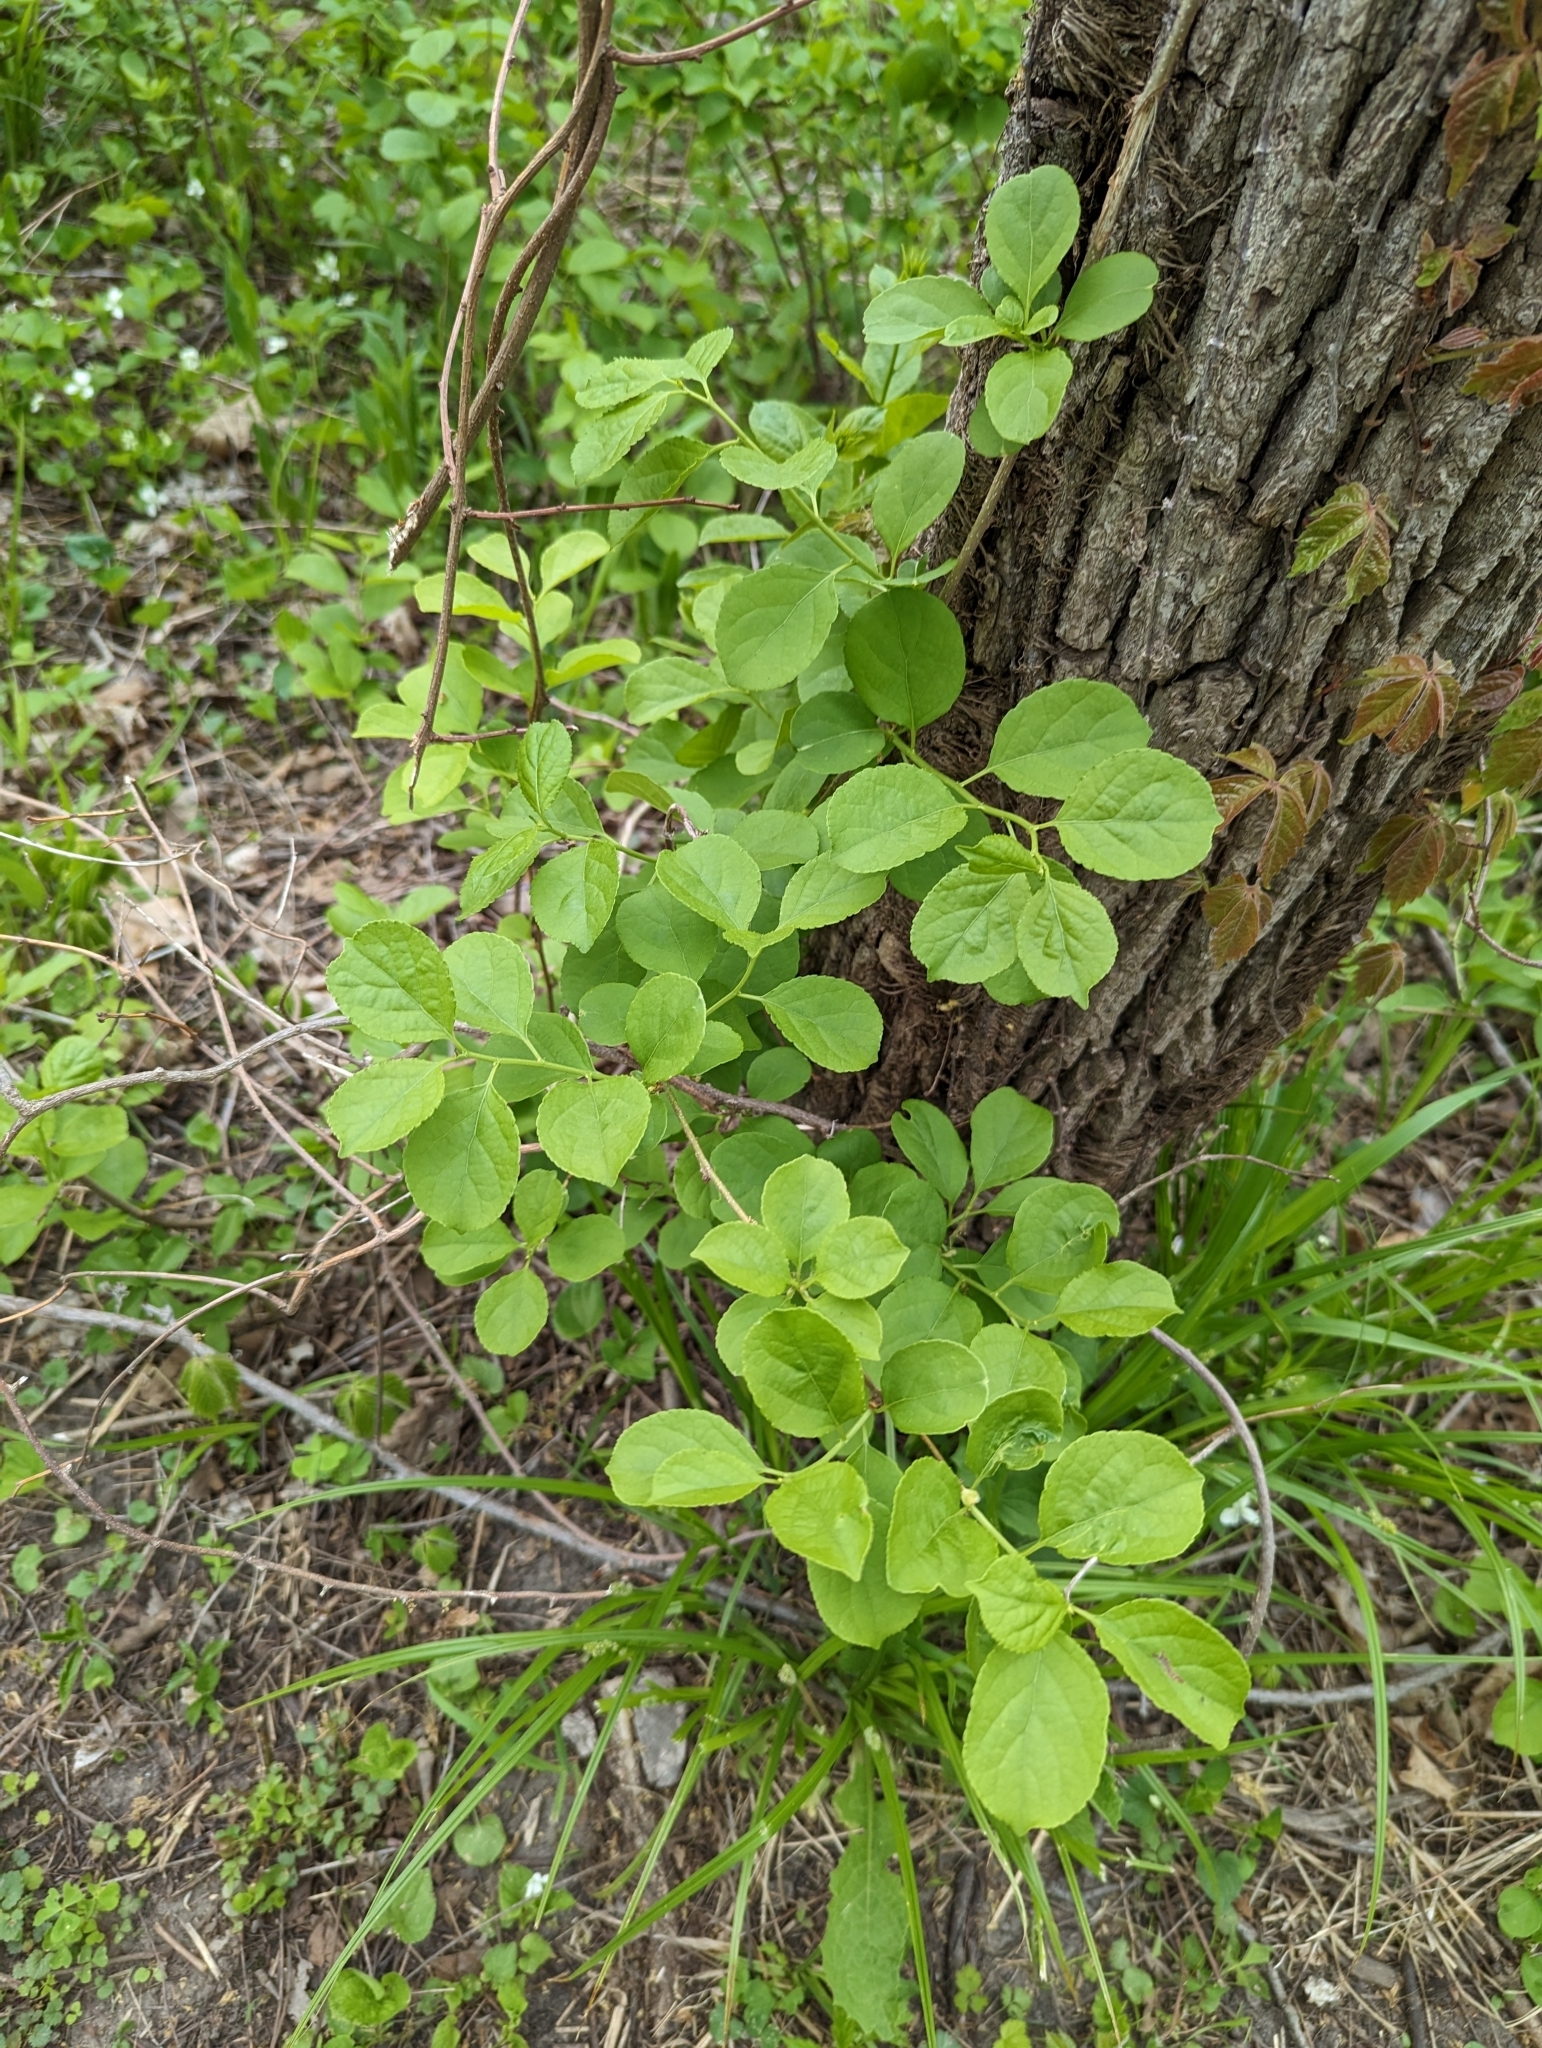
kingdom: Plantae
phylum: Tracheophyta
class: Magnoliopsida
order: Celastrales
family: Celastraceae
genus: Celastrus
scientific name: Celastrus orbiculatus
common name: Oriental bittersweet
